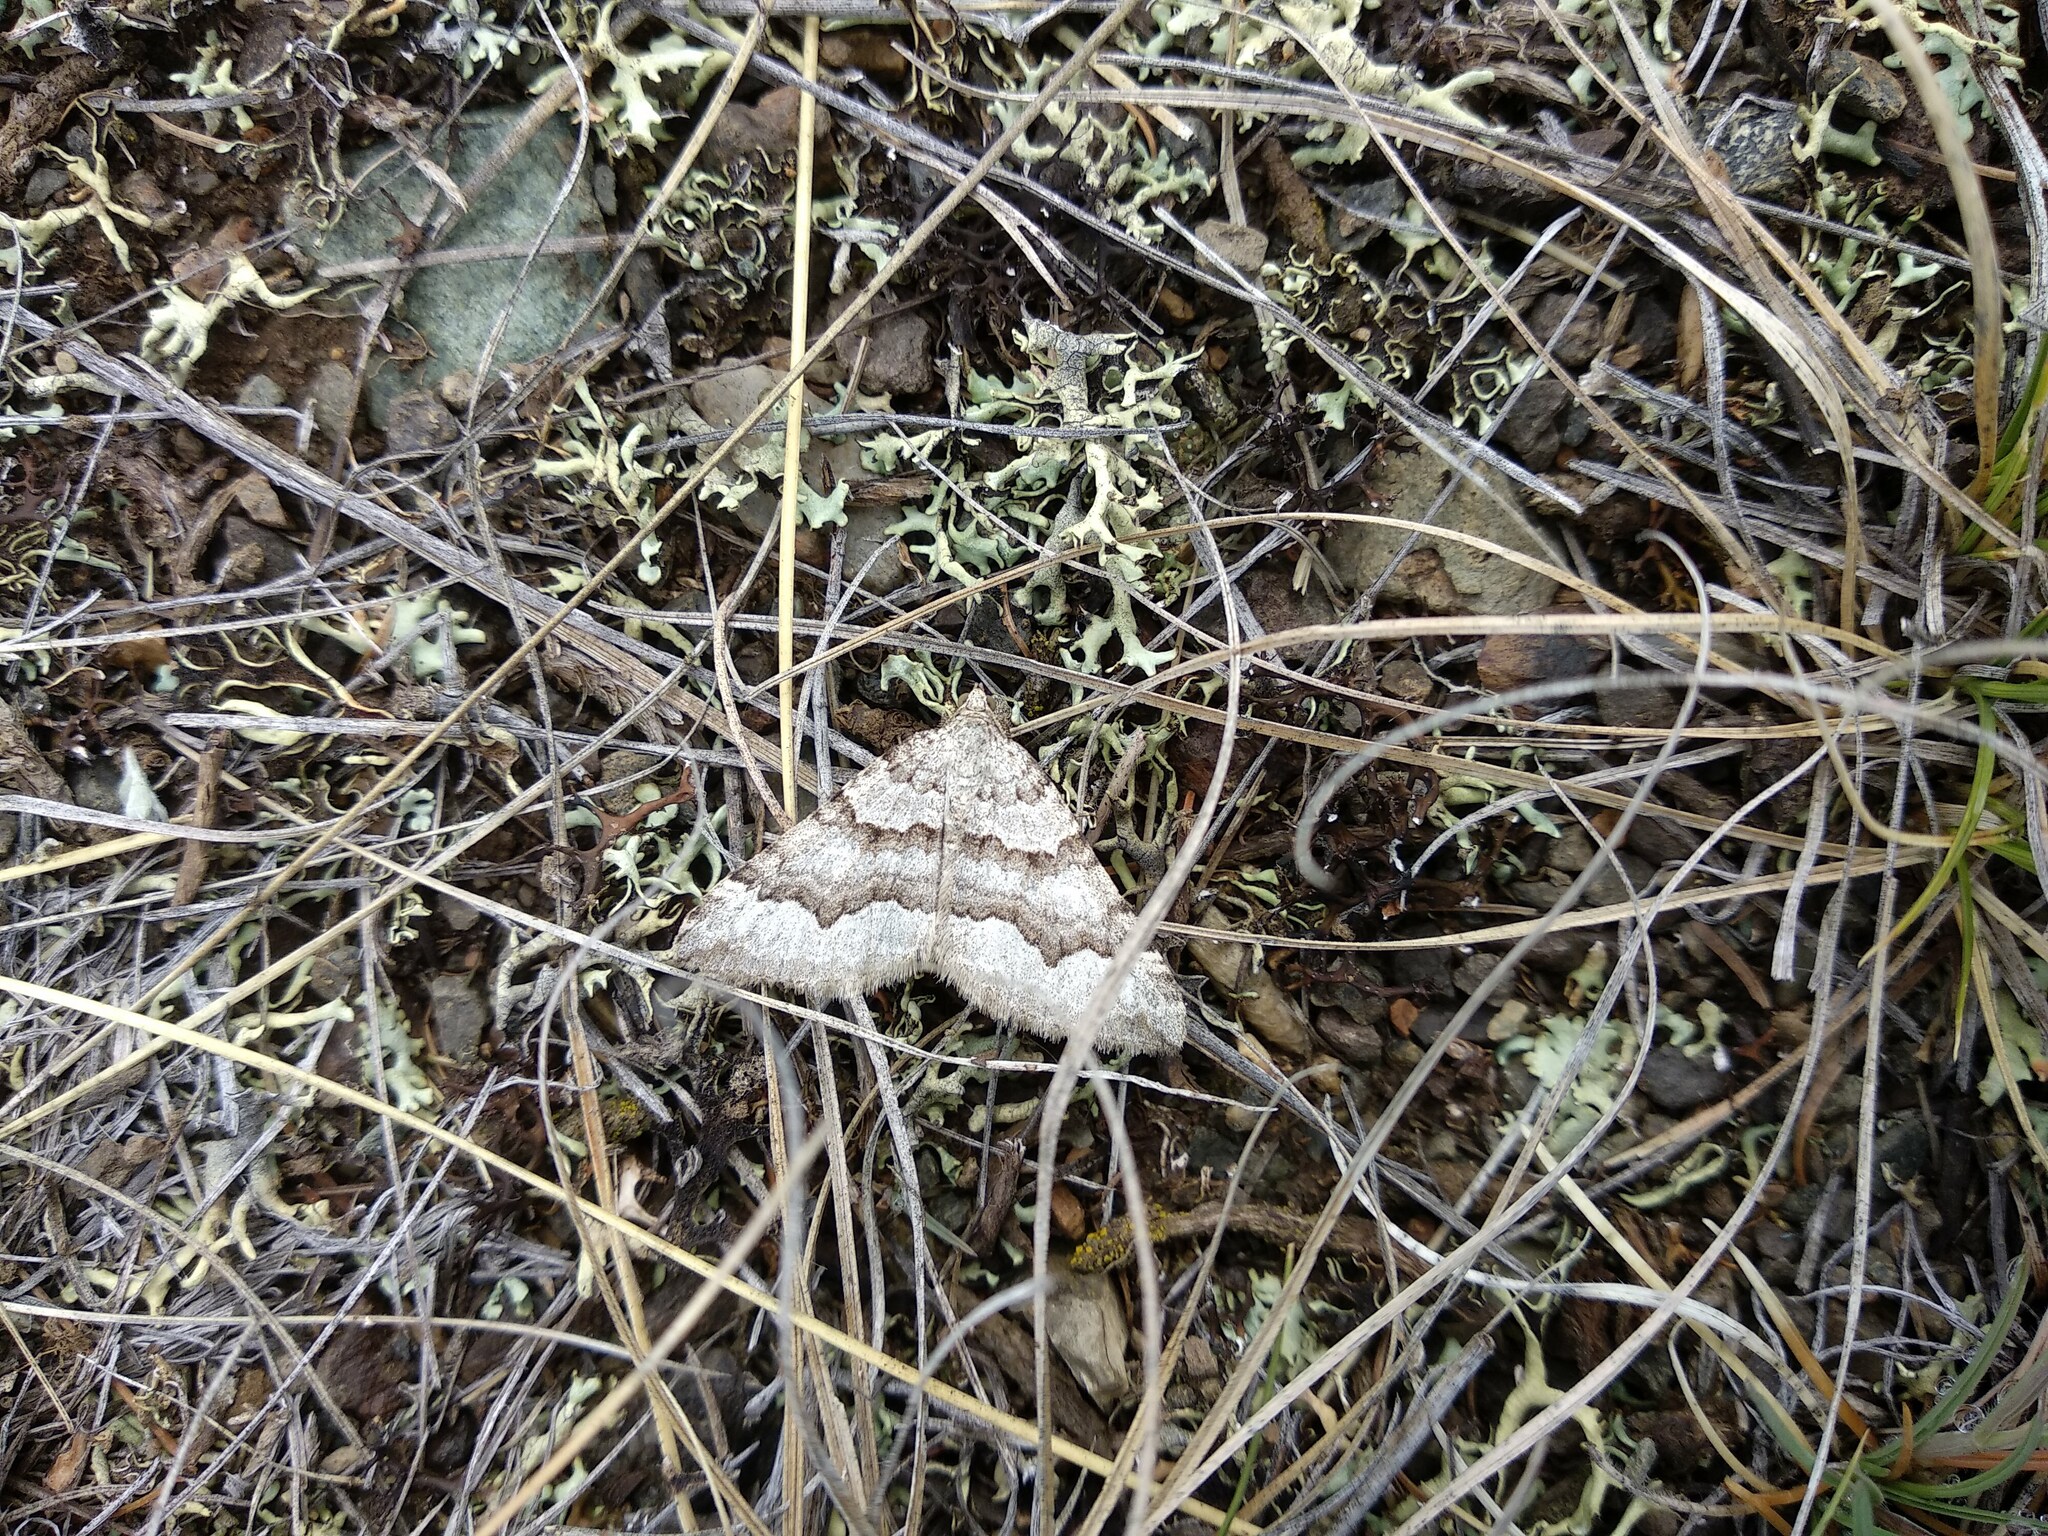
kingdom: Animalia
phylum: Arthropoda
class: Insecta
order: Lepidoptera
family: Geometridae
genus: Scotopteryx
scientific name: Scotopteryx burgaria
